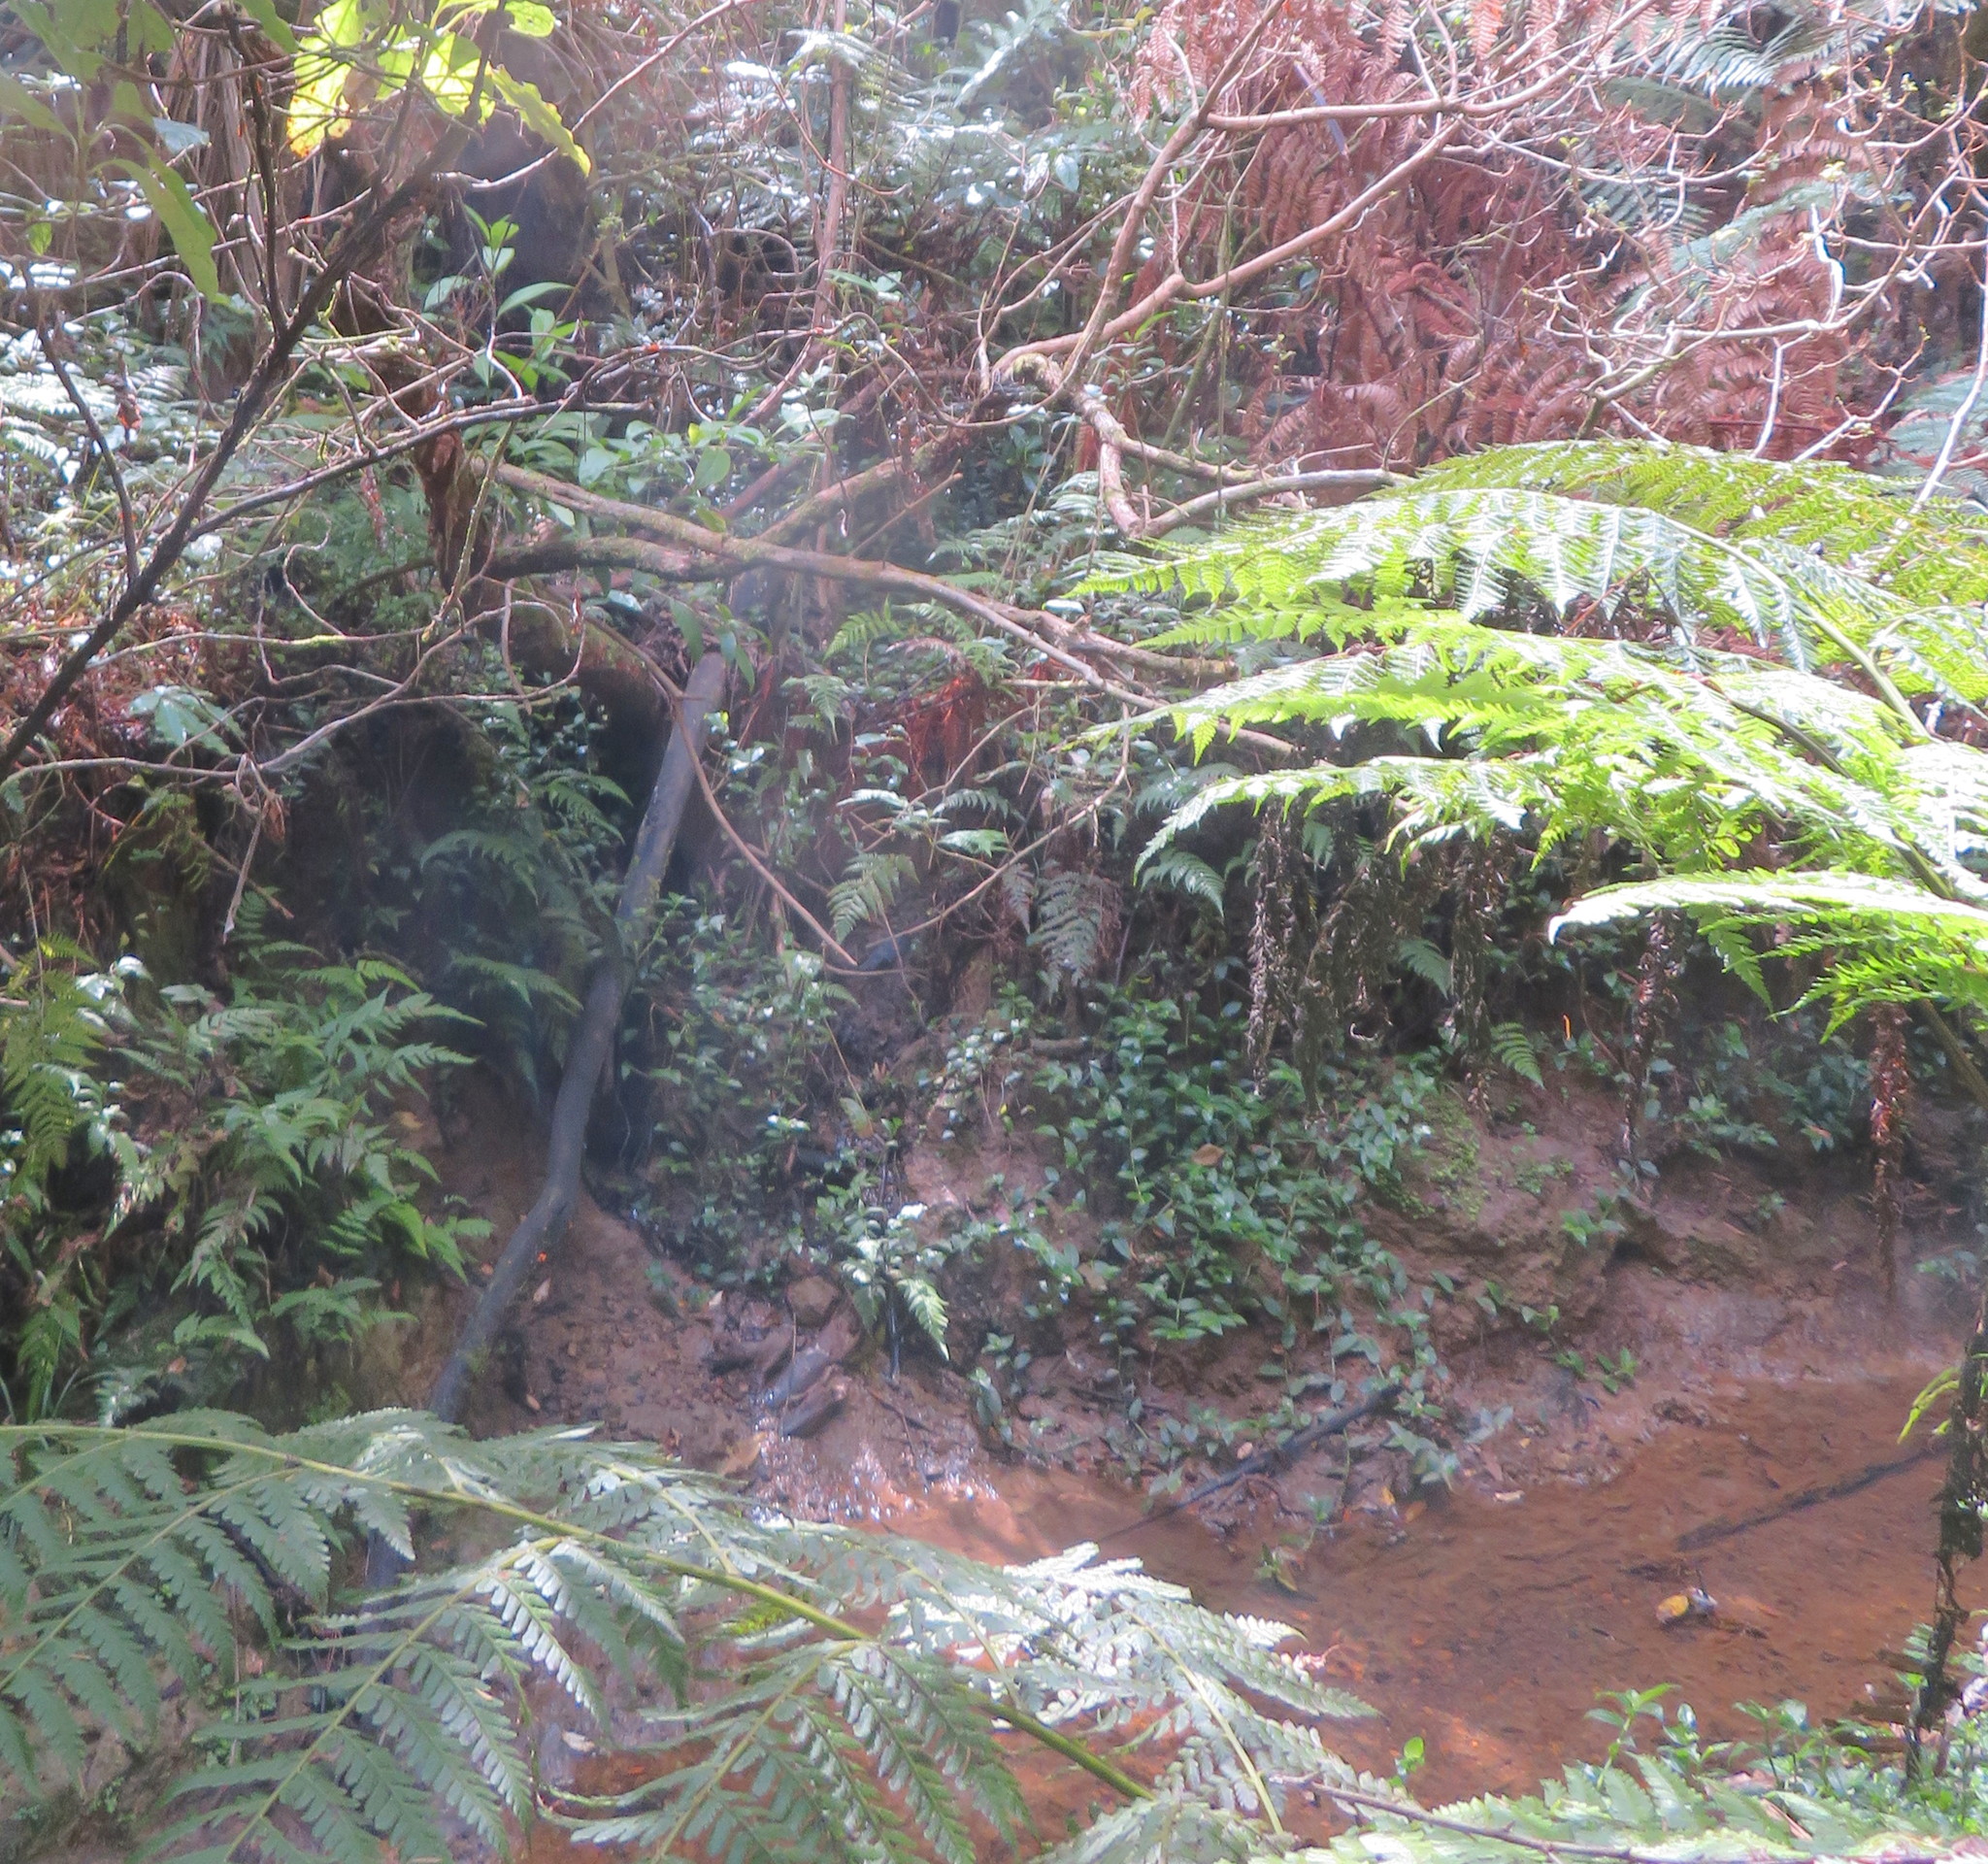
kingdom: Plantae
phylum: Tracheophyta
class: Liliopsida
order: Commelinales
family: Commelinaceae
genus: Tradescantia
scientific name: Tradescantia fluminensis
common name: Wandering-jew
